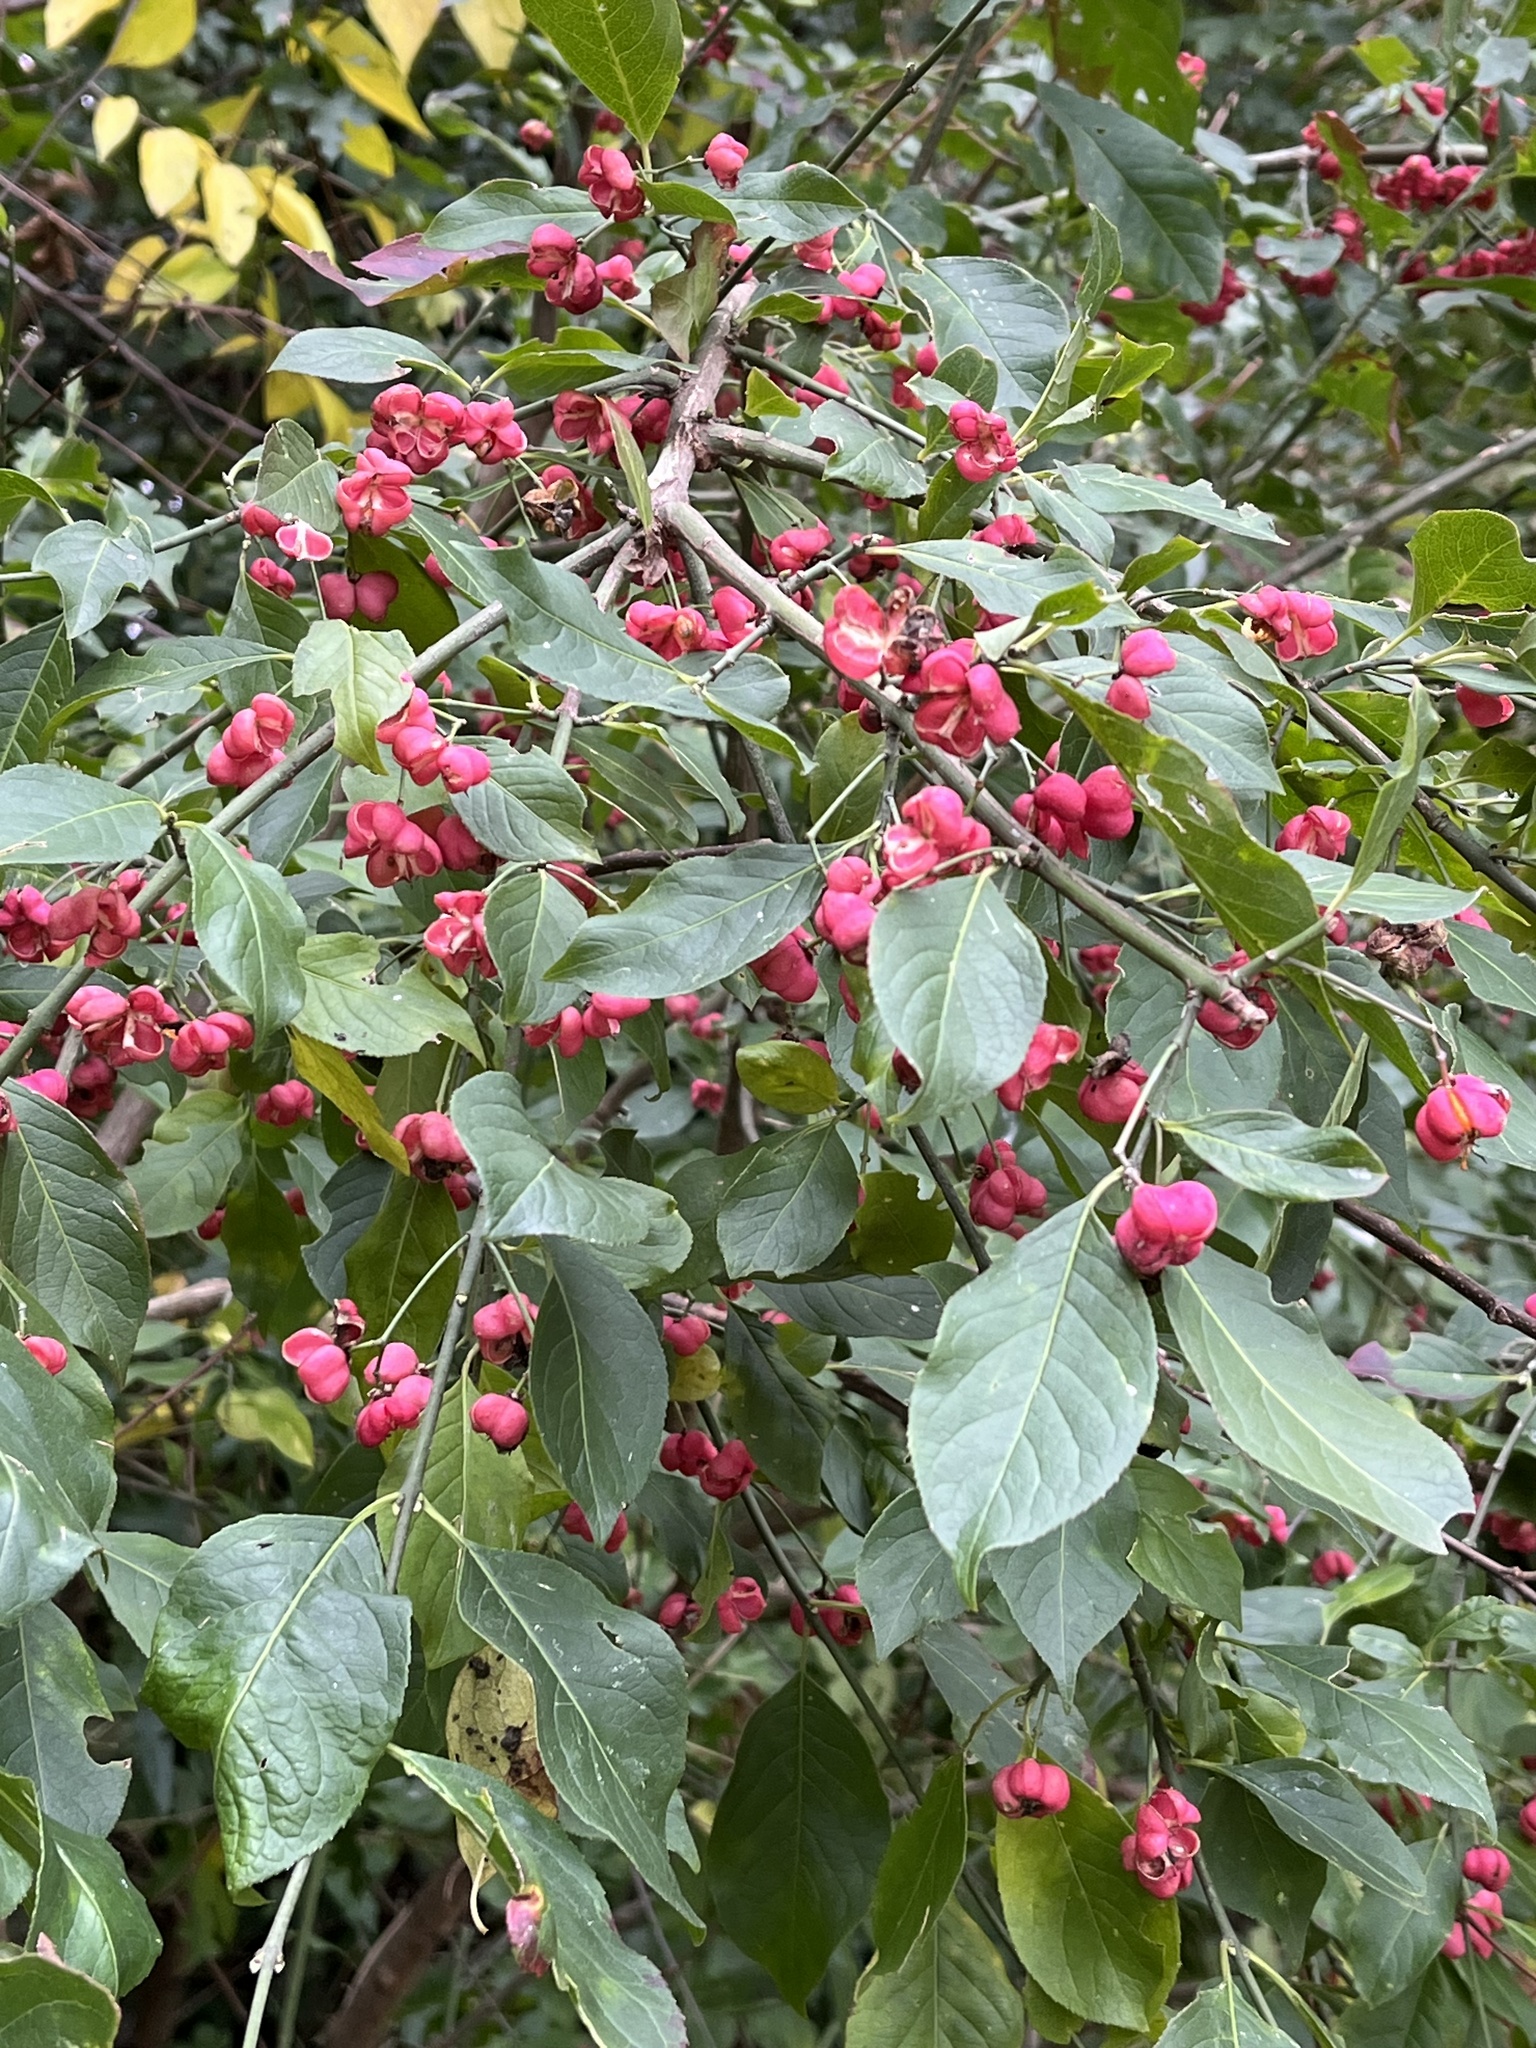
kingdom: Plantae
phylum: Tracheophyta
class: Magnoliopsida
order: Celastrales
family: Celastraceae
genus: Euonymus
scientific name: Euonymus europaeus
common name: Spindle
